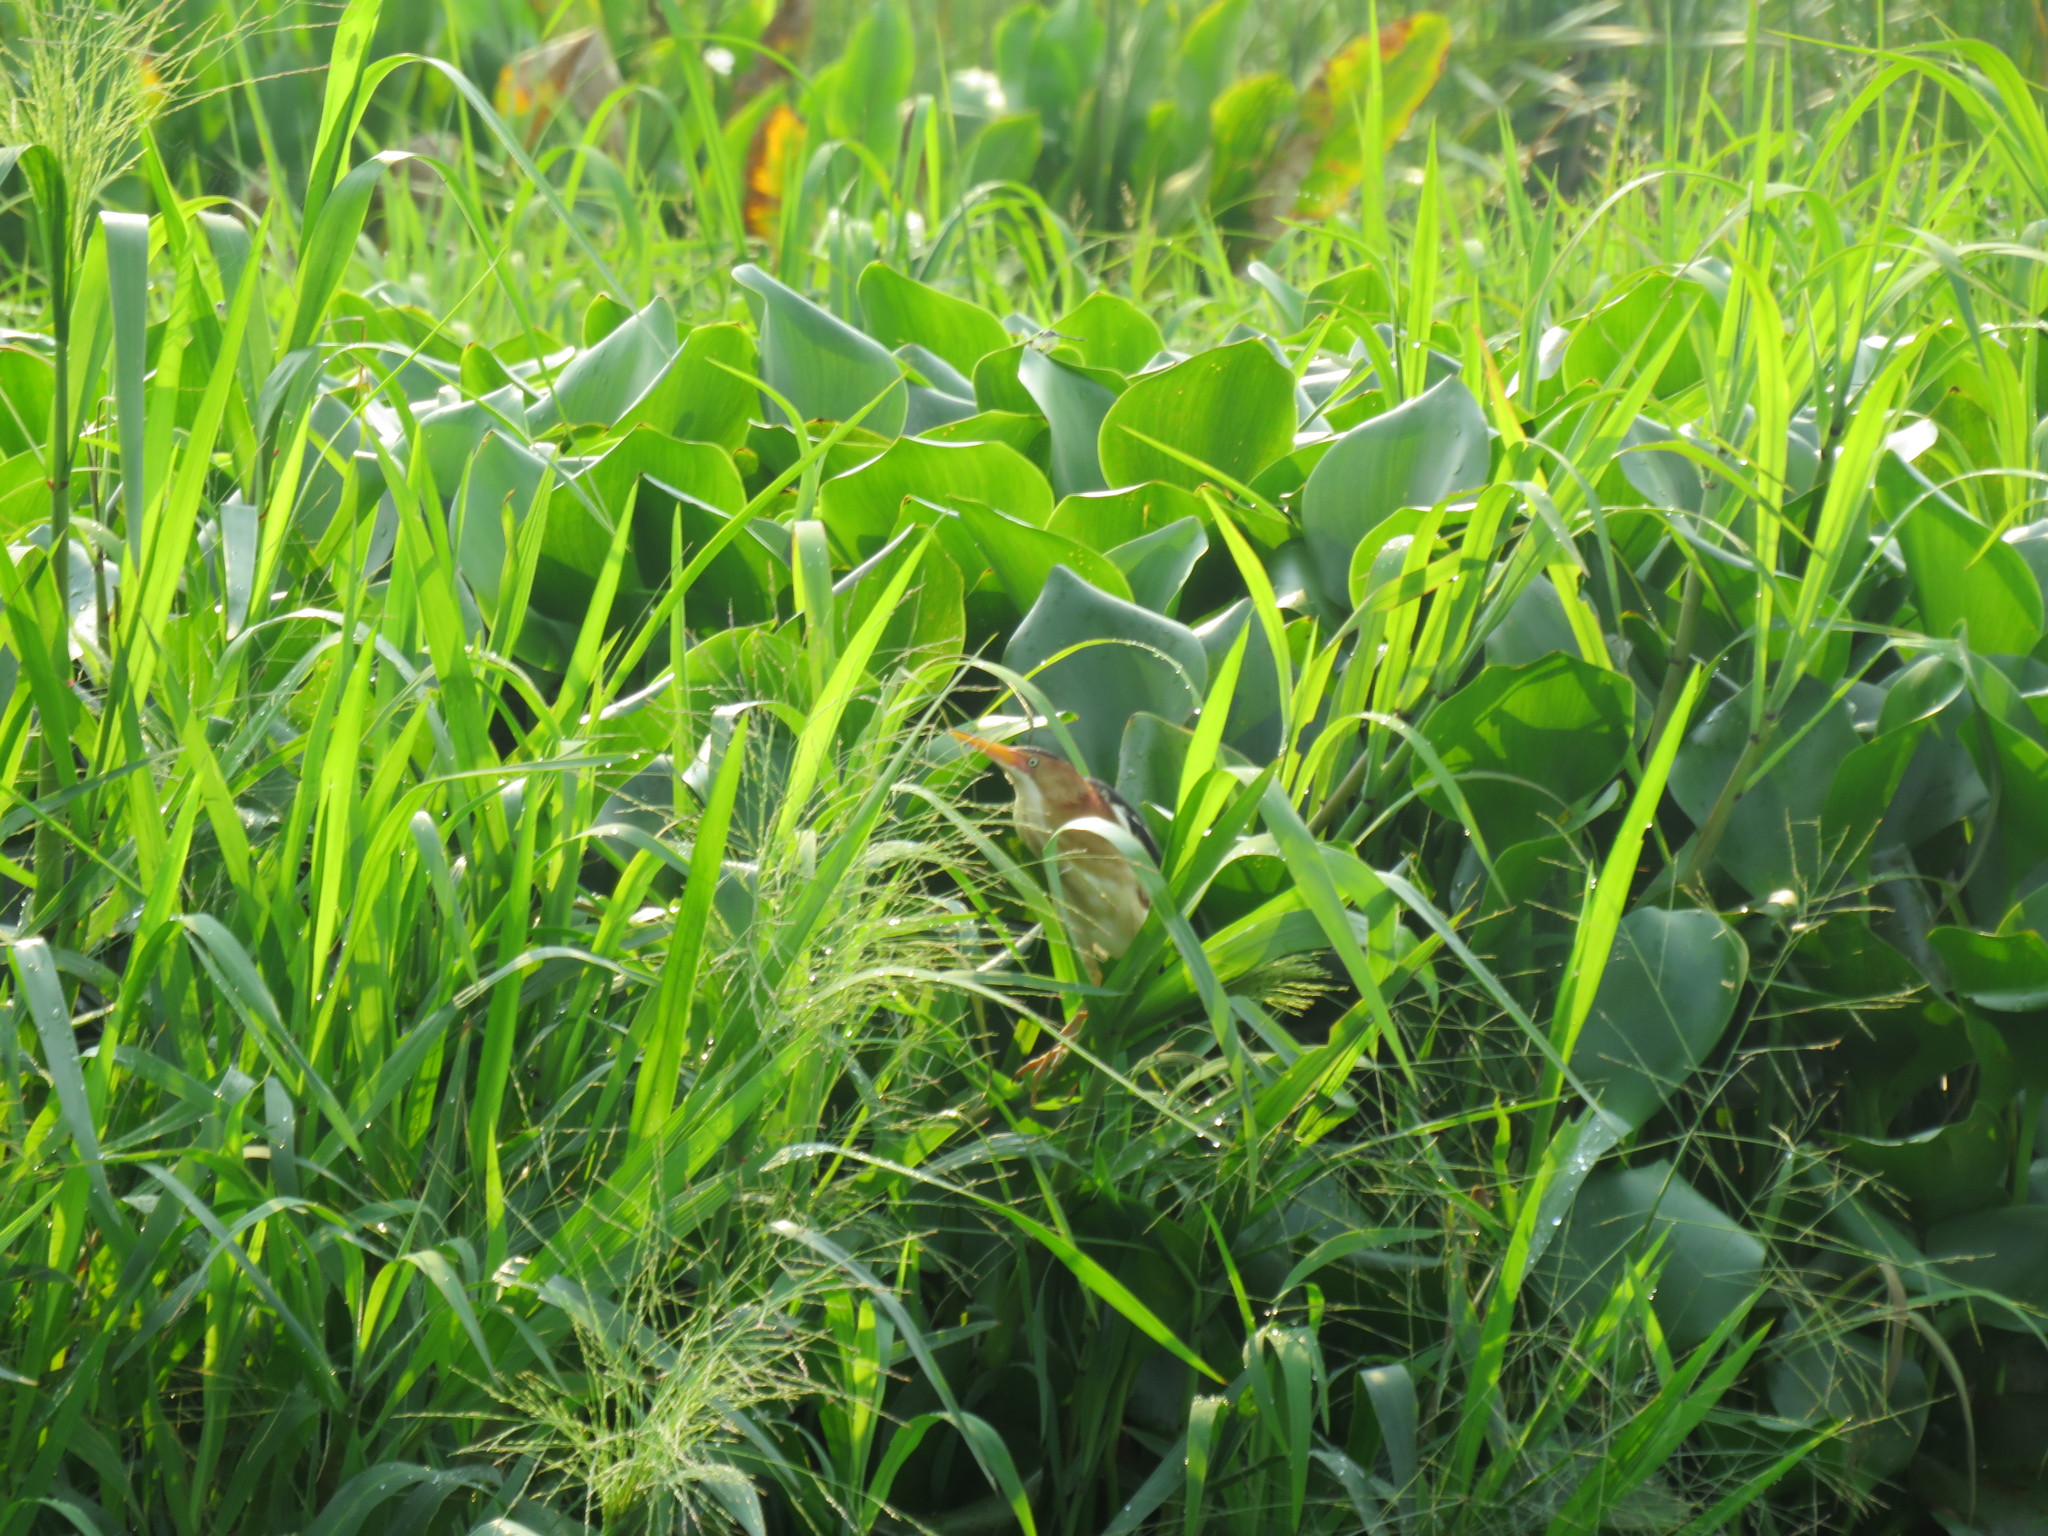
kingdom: Animalia
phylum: Chordata
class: Aves
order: Pelecaniformes
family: Ardeidae
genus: Ixobrychus
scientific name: Ixobrychus exilis
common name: Least bittern
